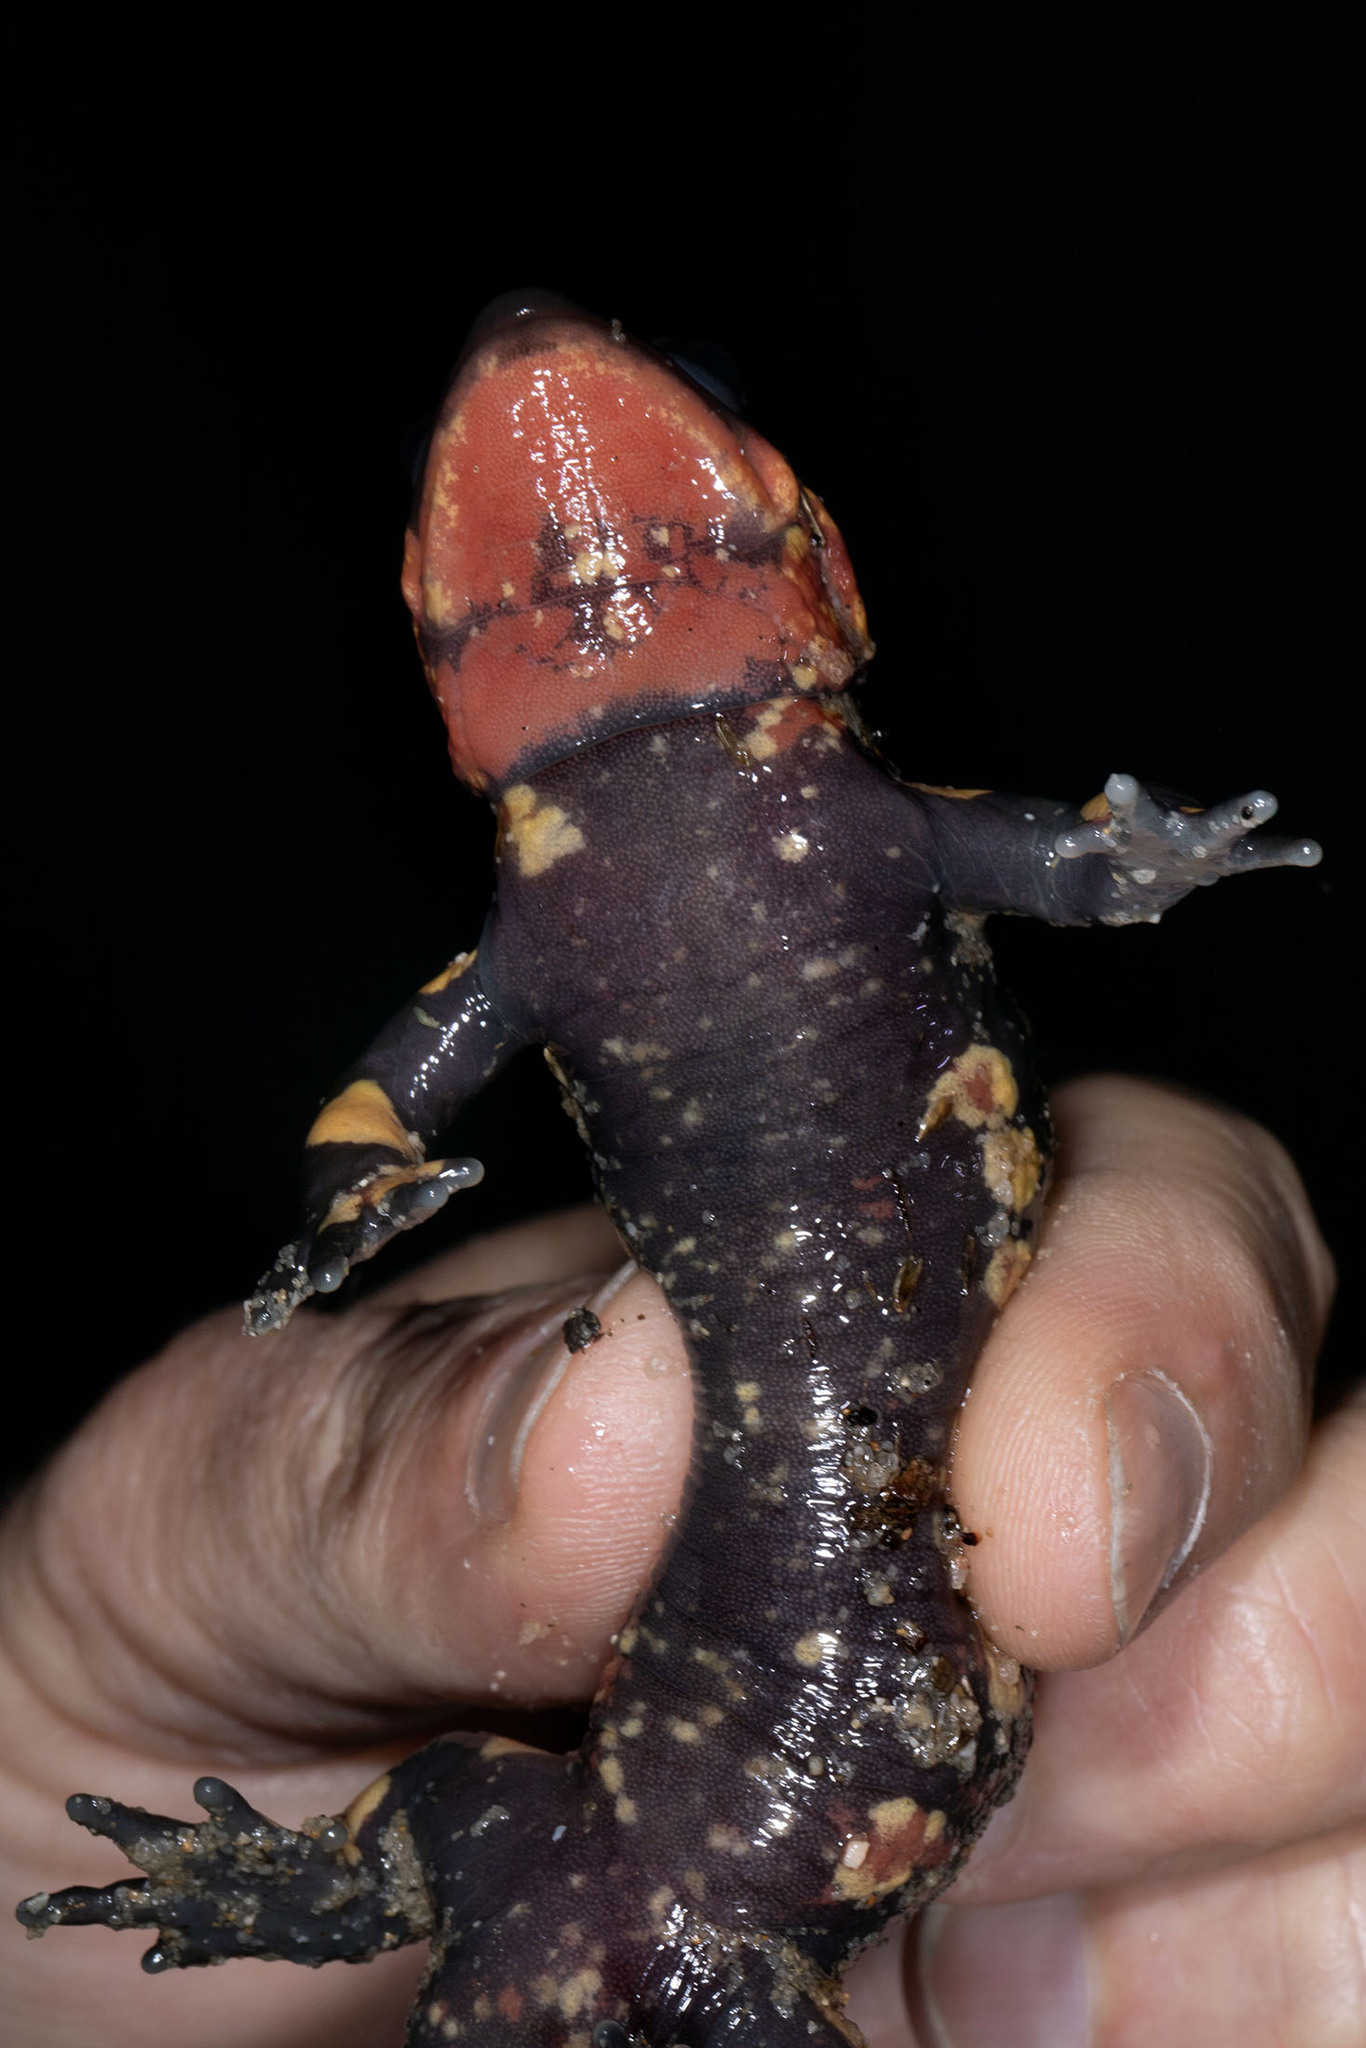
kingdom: Animalia
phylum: Chordata
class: Amphibia
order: Caudata
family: Salamandridae
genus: Salamandra
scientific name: Salamandra salamandra
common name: Fire salamander
